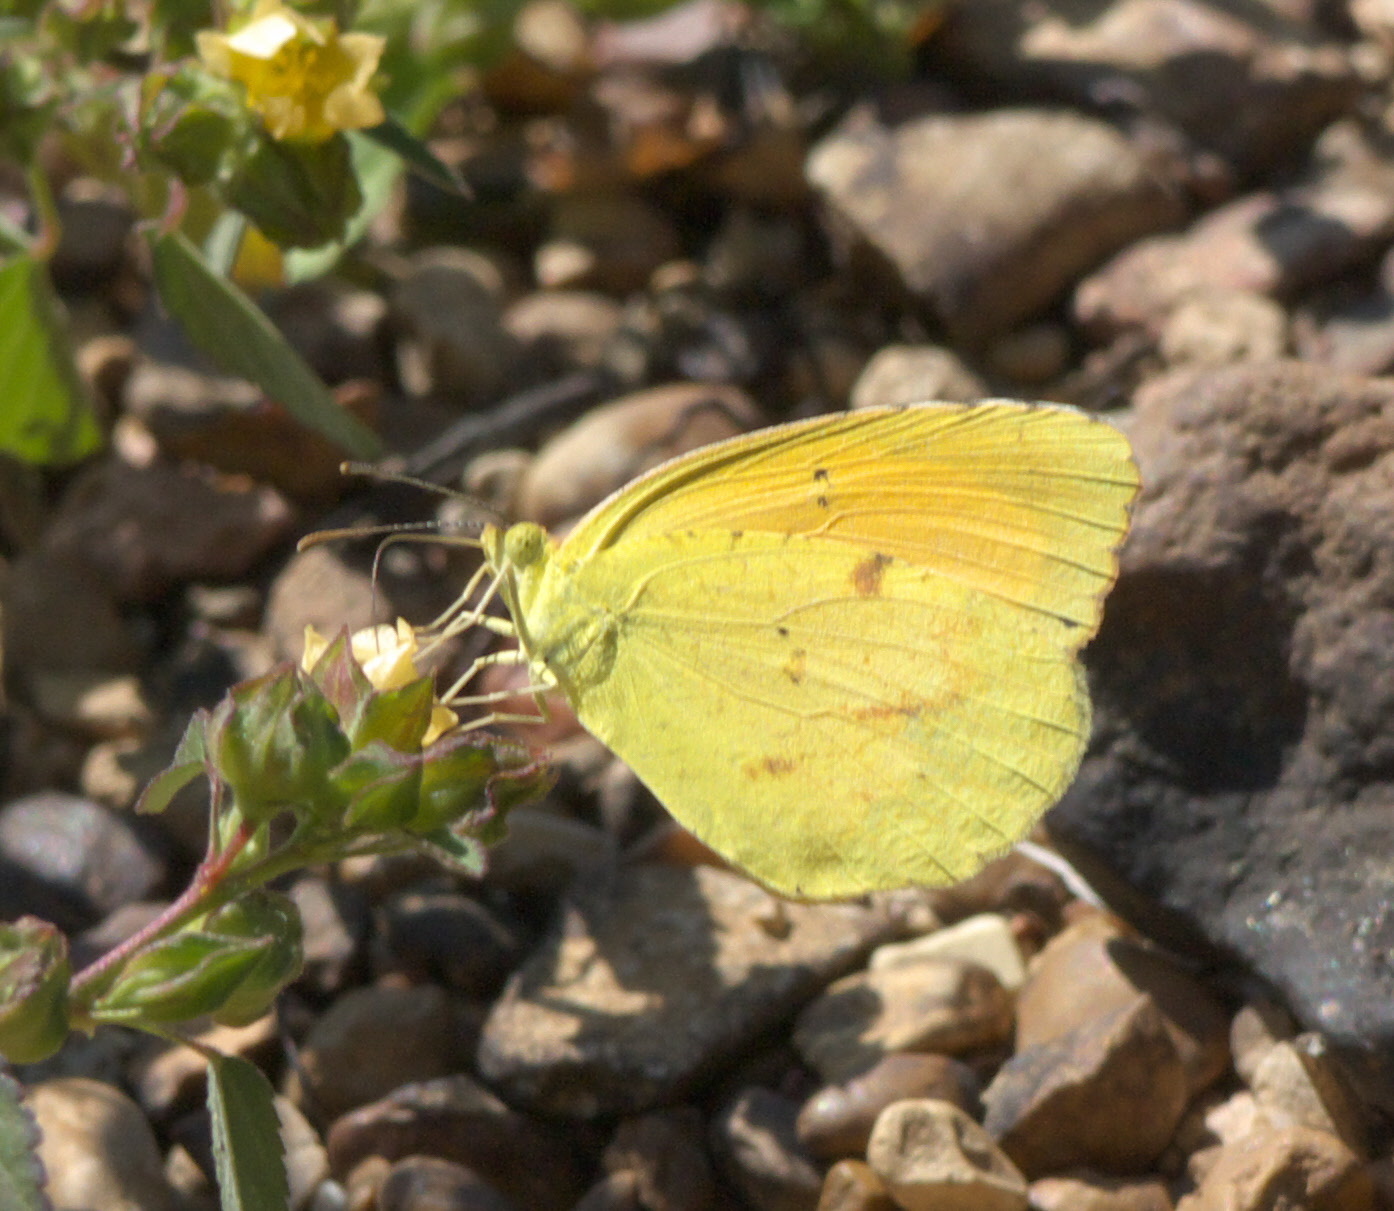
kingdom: Animalia
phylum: Arthropoda
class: Insecta
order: Lepidoptera
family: Pieridae
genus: Abaeis
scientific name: Abaeis nicippe
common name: Sleepy orange
